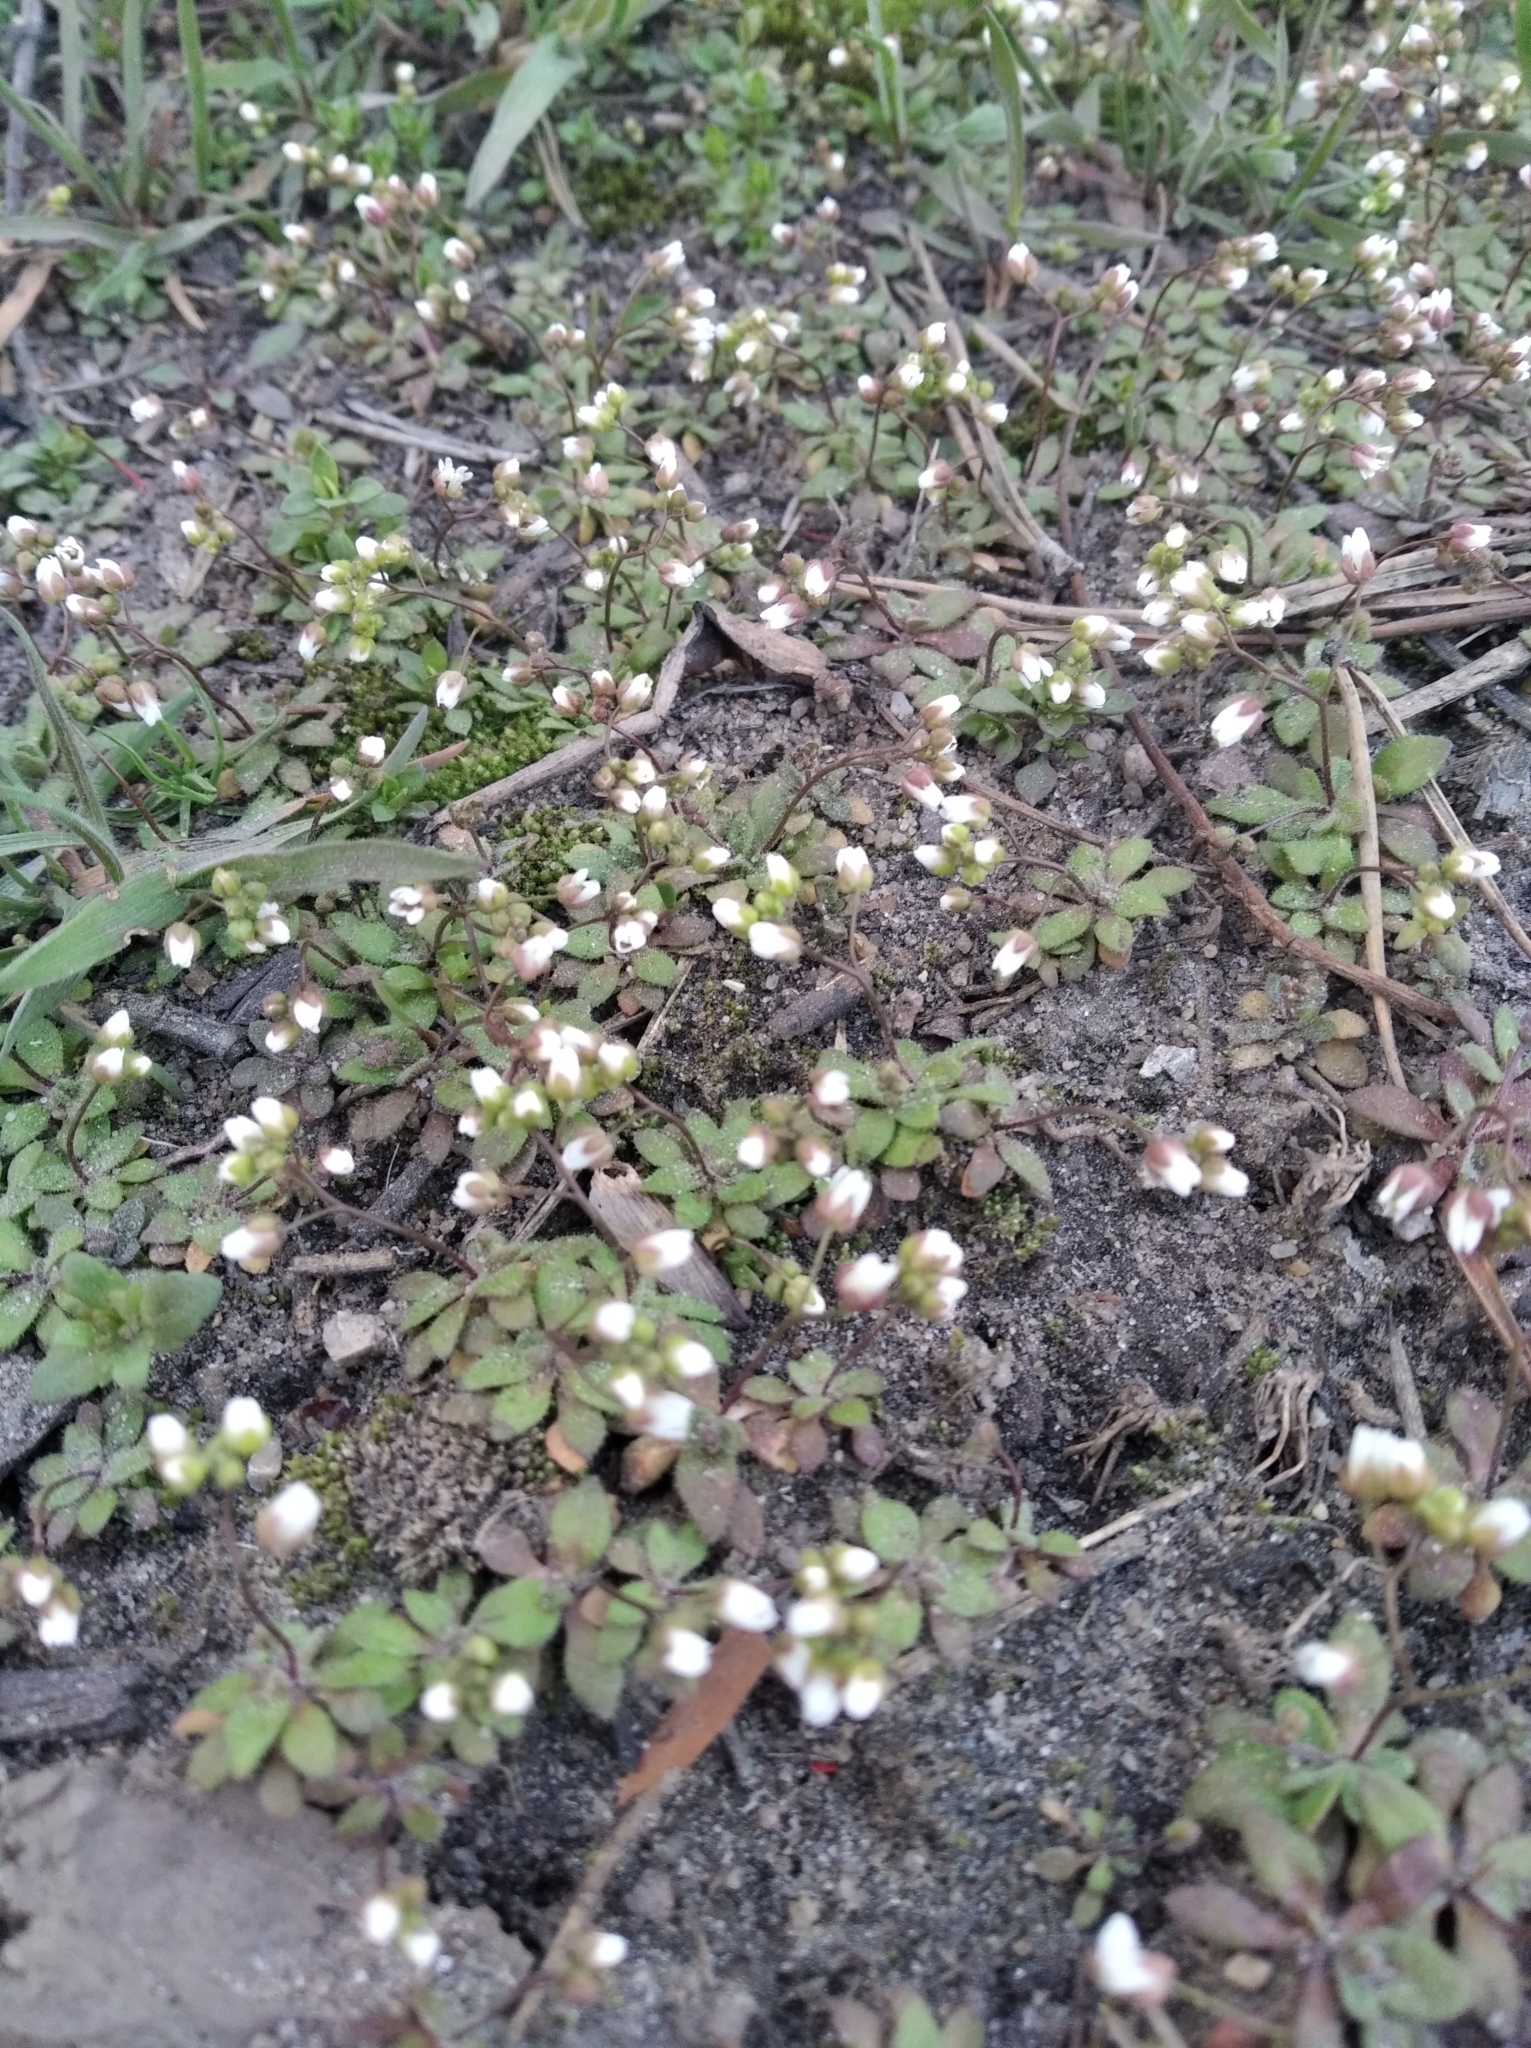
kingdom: Plantae
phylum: Tracheophyta
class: Magnoliopsida
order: Brassicales
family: Brassicaceae
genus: Draba
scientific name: Draba verna
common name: Spring draba
